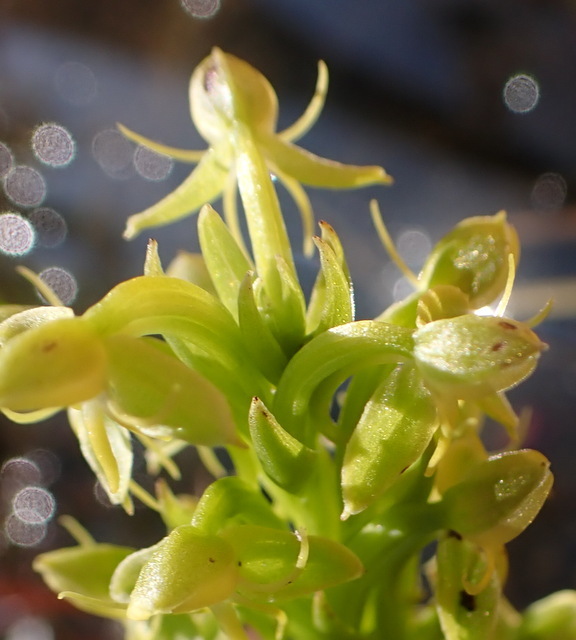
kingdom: Plantae
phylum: Tracheophyta
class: Liliopsida
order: Asparagales
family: Orchidaceae
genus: Habenaria
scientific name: Habenaria repens
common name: Water orchid
